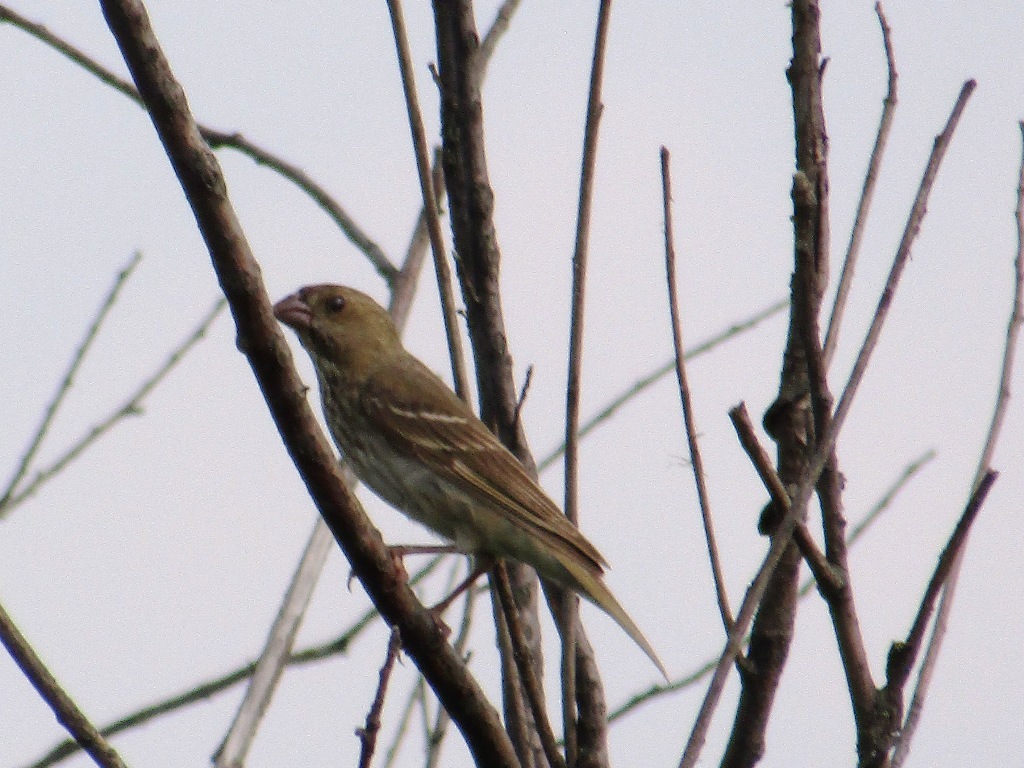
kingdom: Animalia
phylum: Chordata
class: Aves
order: Passeriformes
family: Fringillidae
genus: Carpodacus
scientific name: Carpodacus erythrinus
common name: Common rosefinch
